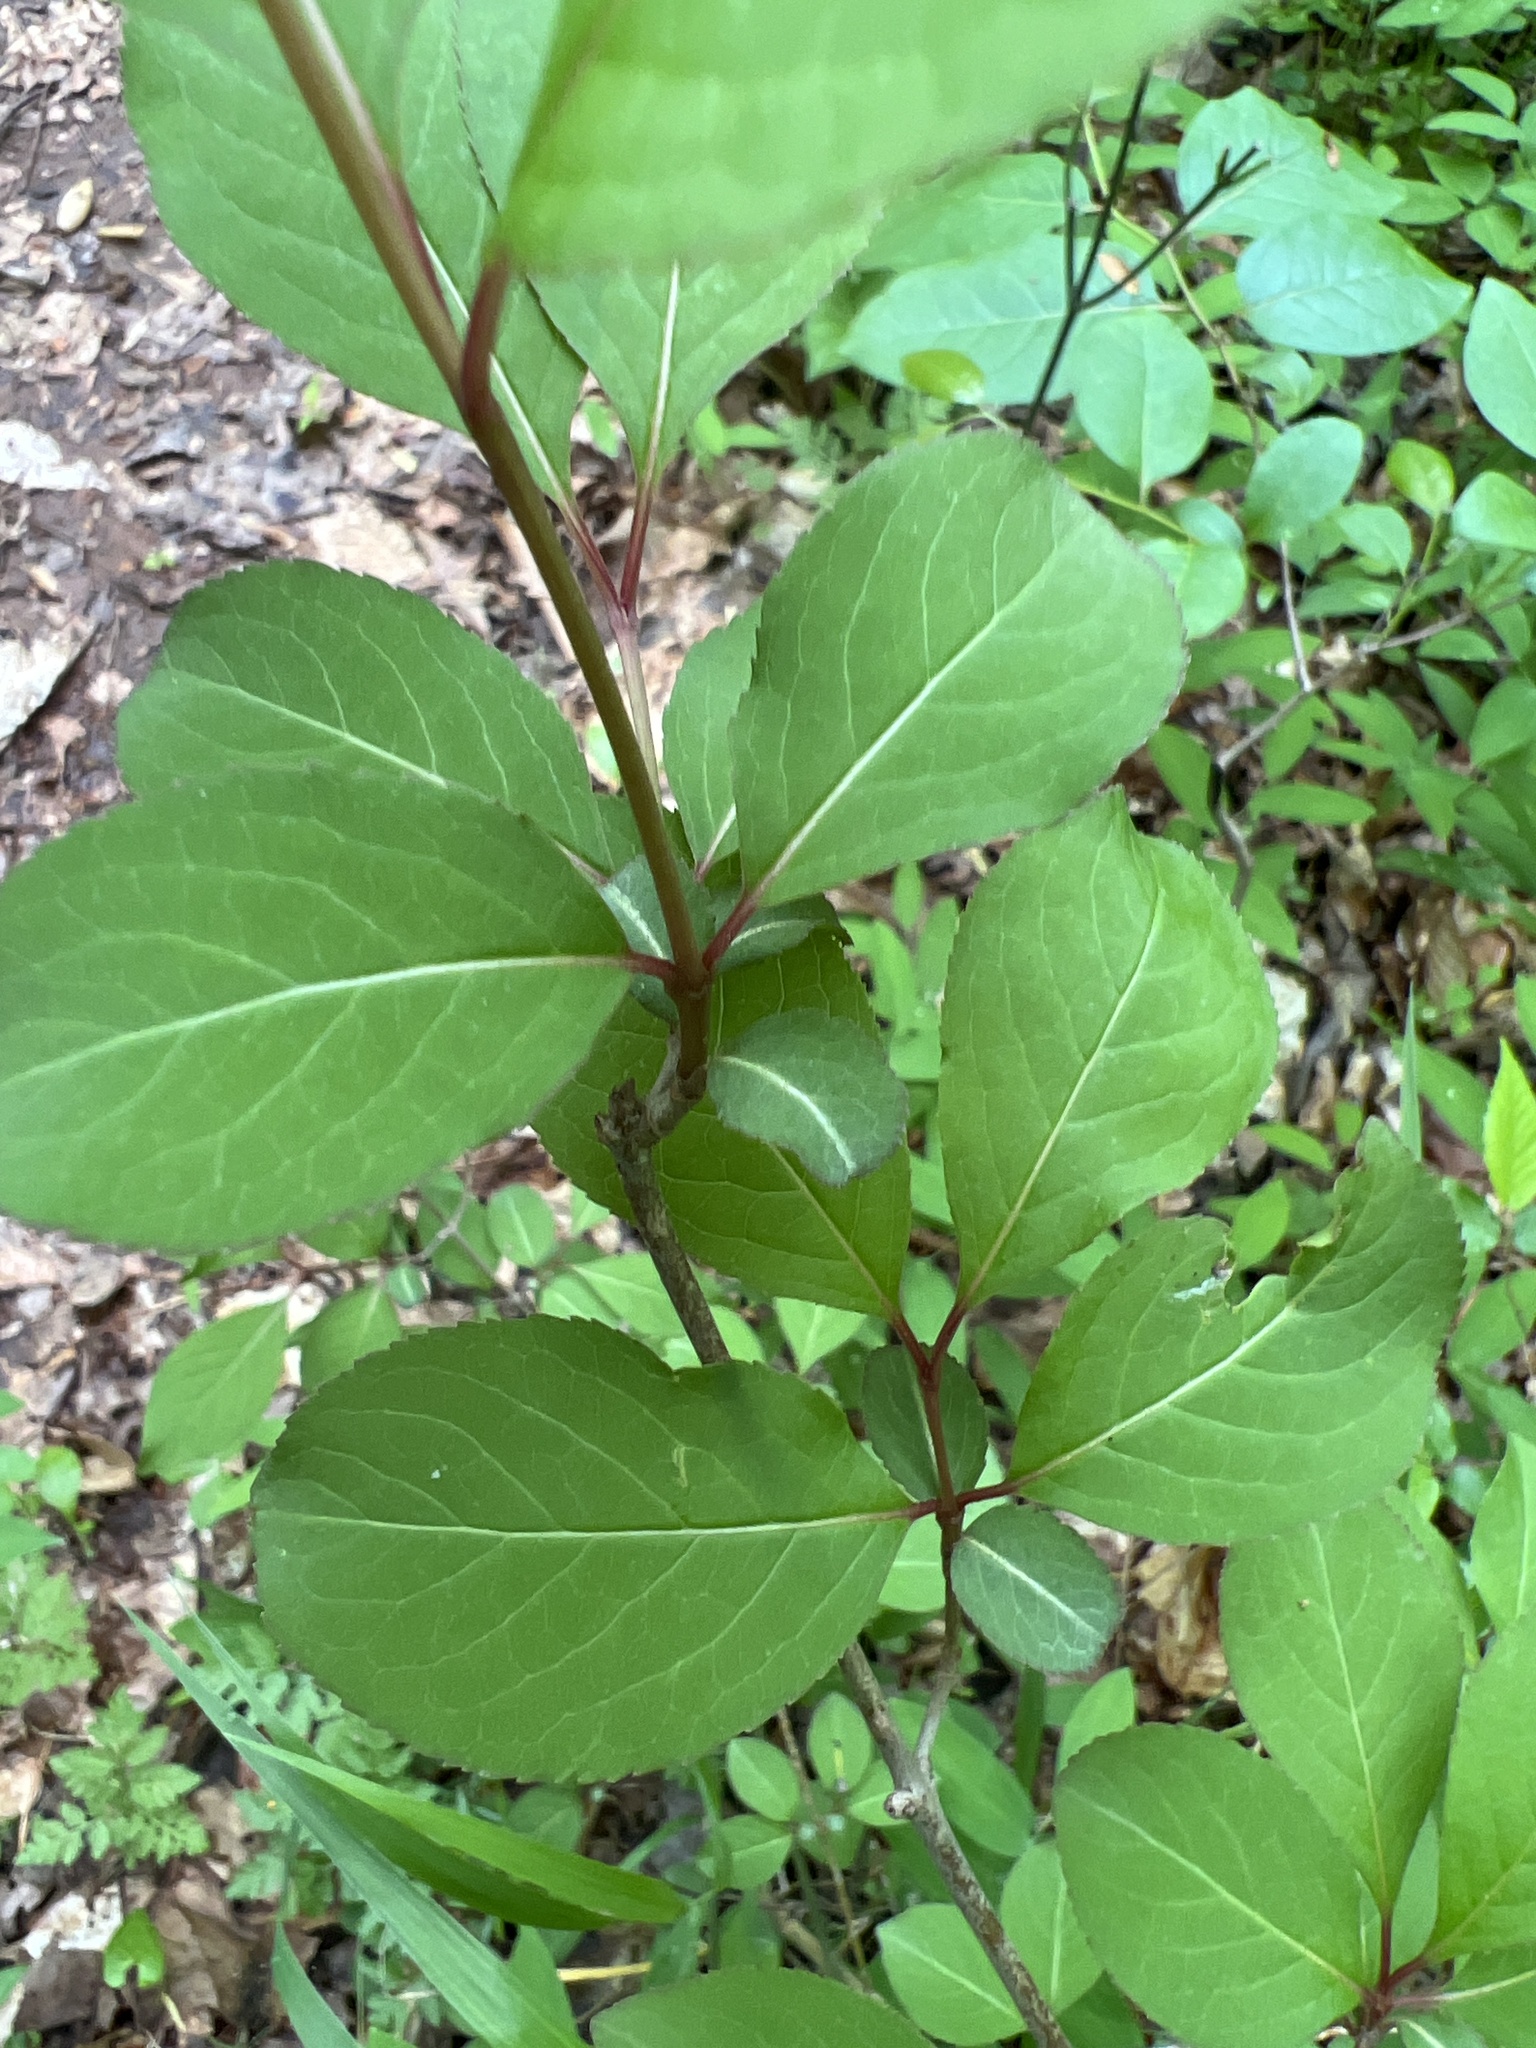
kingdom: Plantae
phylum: Tracheophyta
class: Magnoliopsida
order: Dipsacales
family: Viburnaceae
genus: Viburnum
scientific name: Viburnum prunifolium
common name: Black haw
